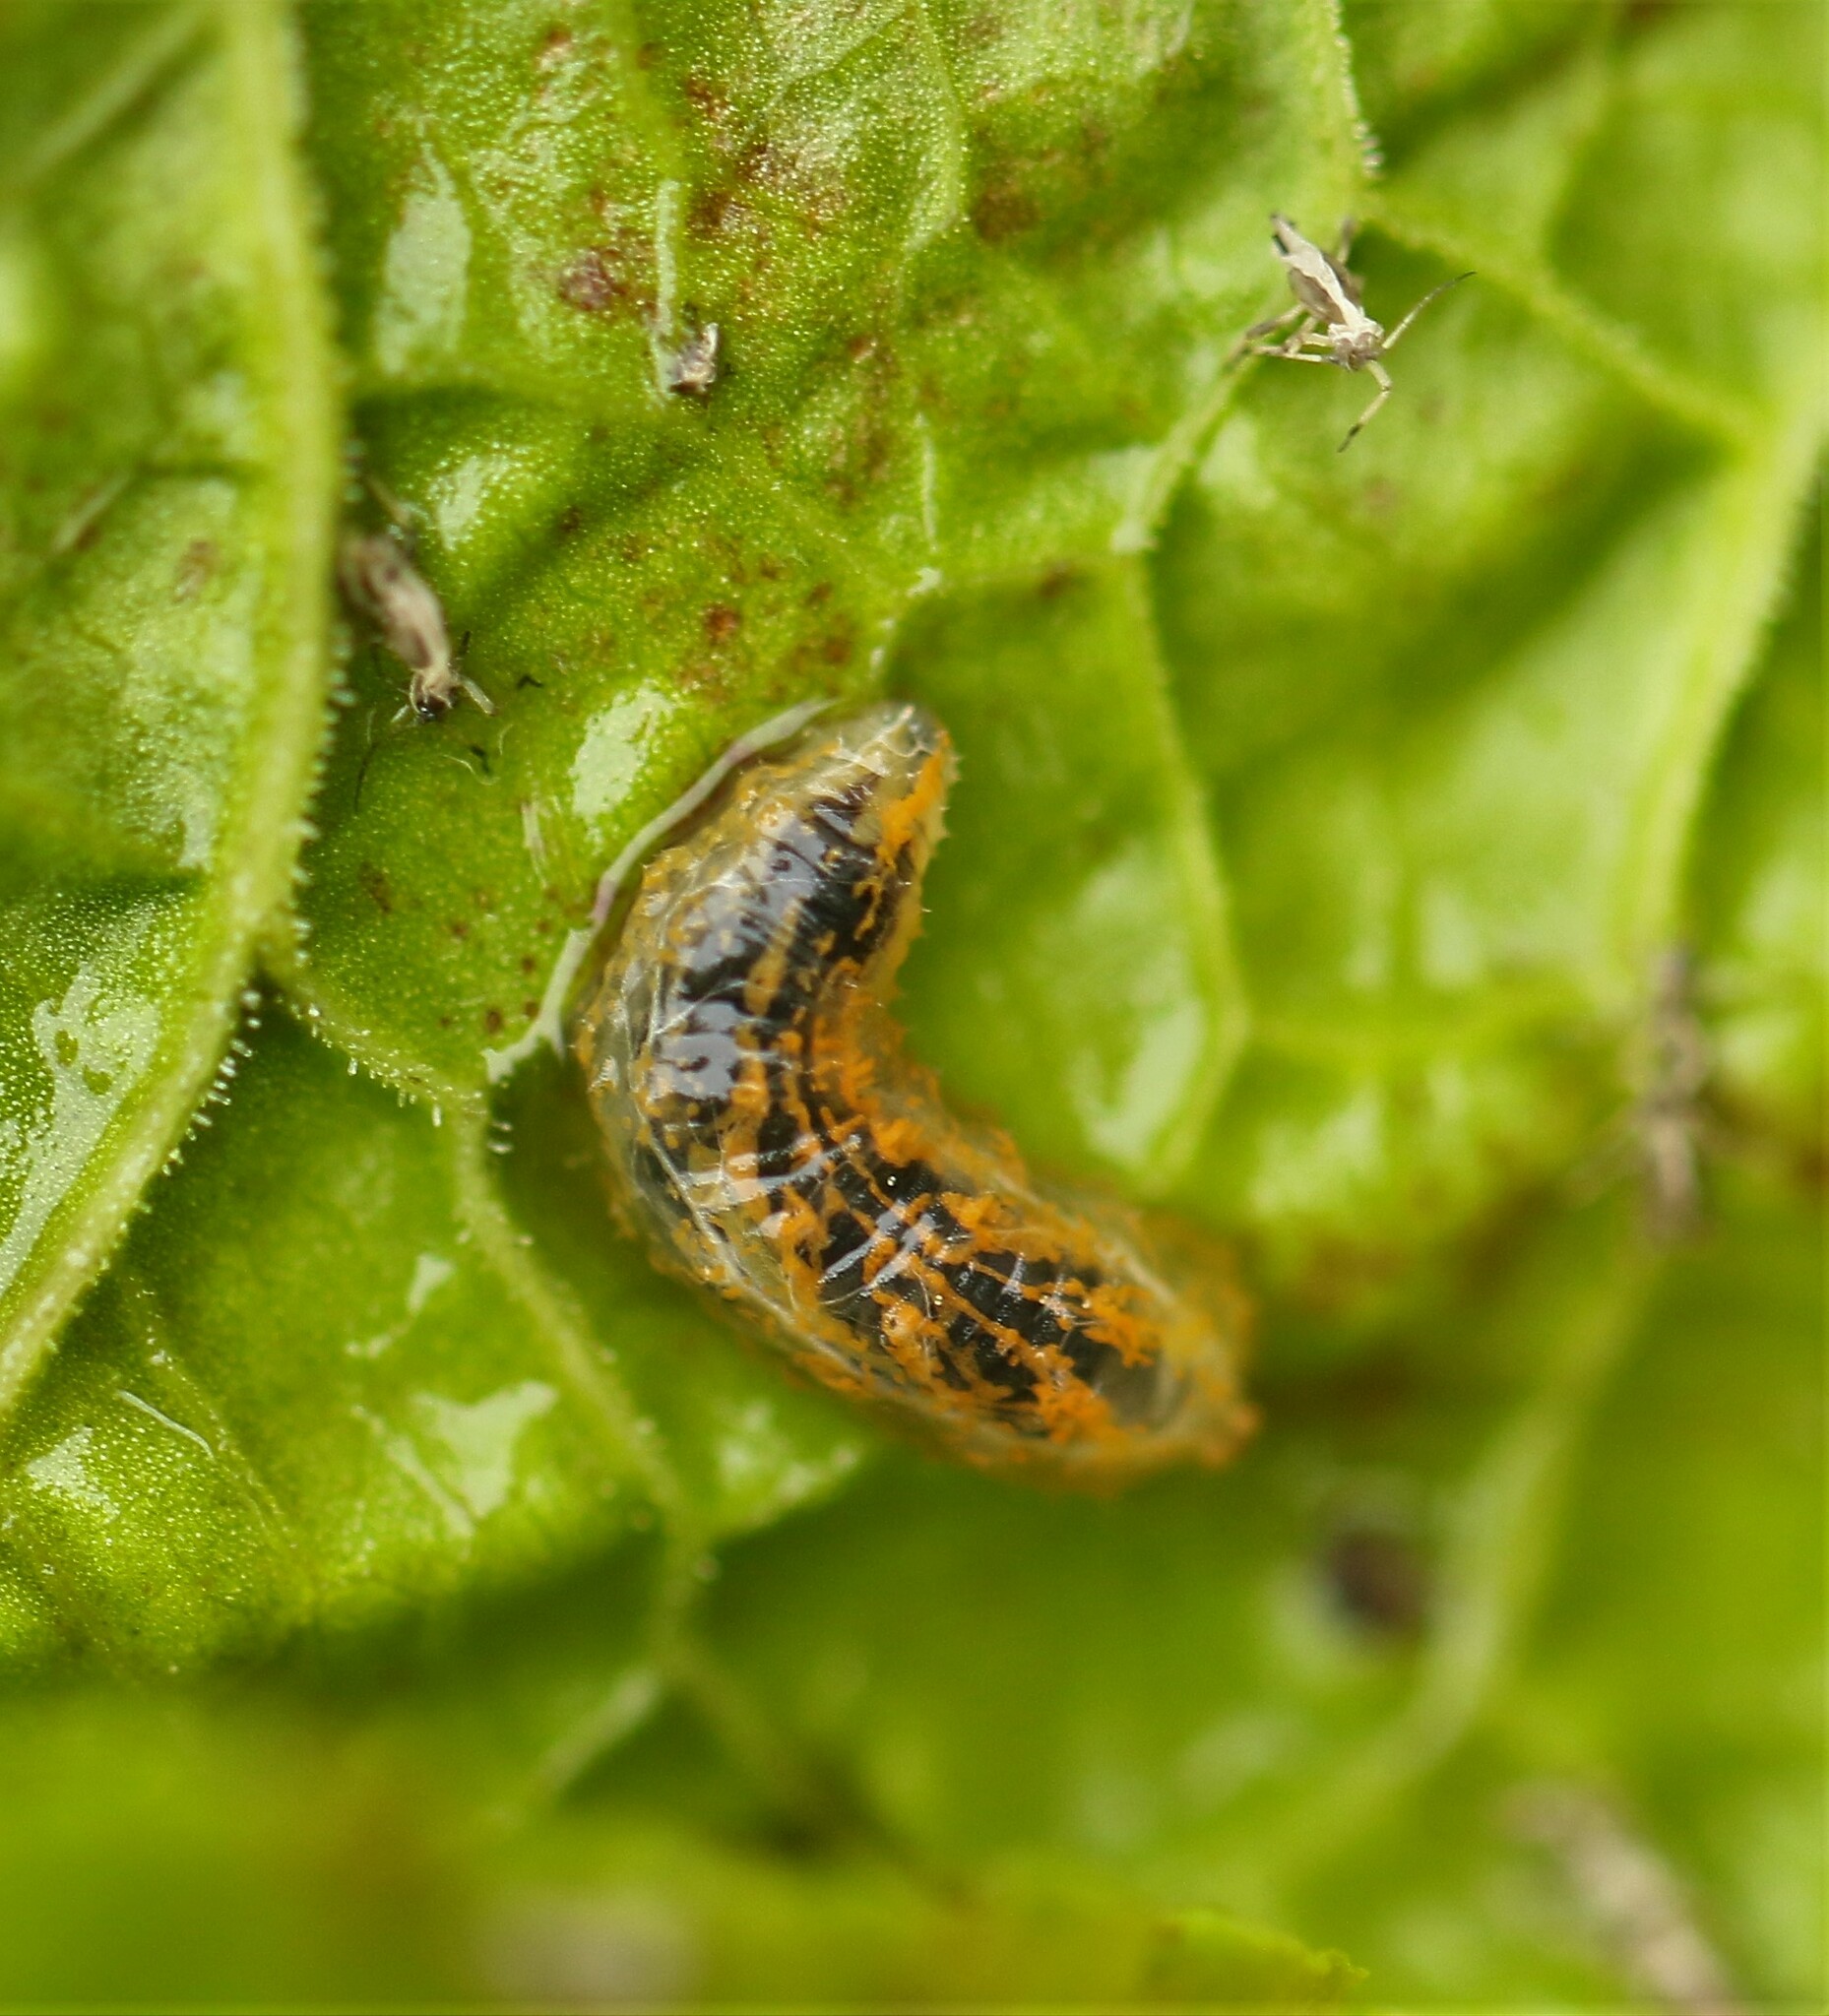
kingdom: Animalia
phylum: Arthropoda
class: Insecta
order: Diptera
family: Syrphidae
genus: Syrphus
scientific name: Syrphus
